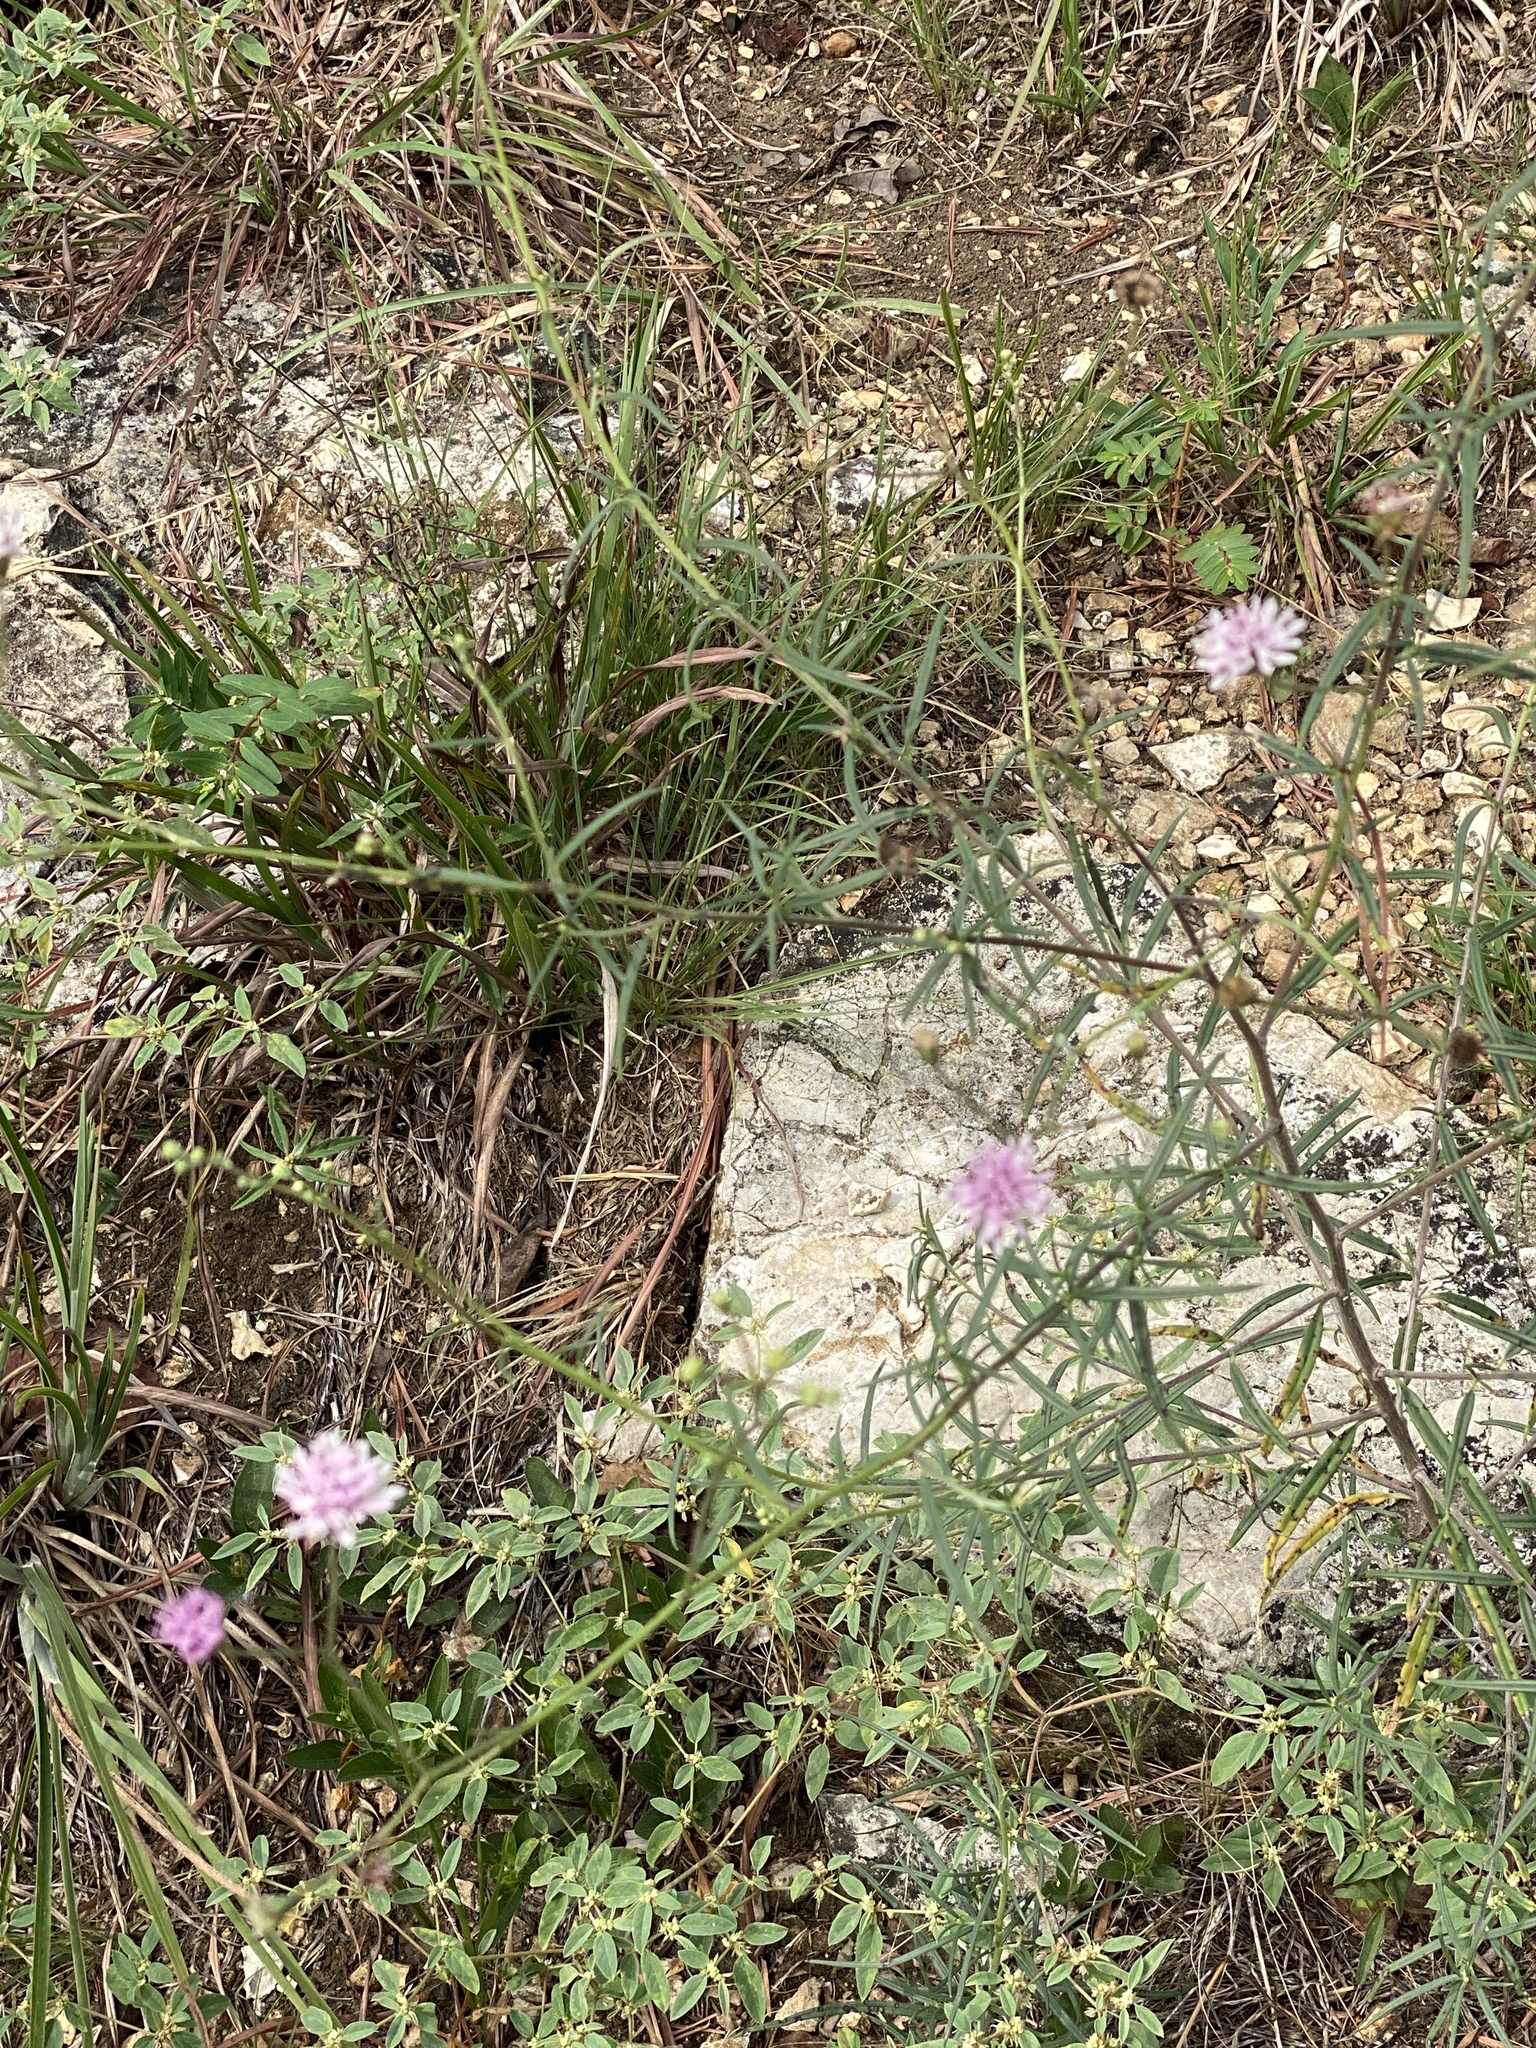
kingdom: Plantae
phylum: Tracheophyta
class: Magnoliopsida
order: Asterales
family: Asteraceae
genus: Palafoxia
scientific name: Palafoxia callosa
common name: Small palafox
